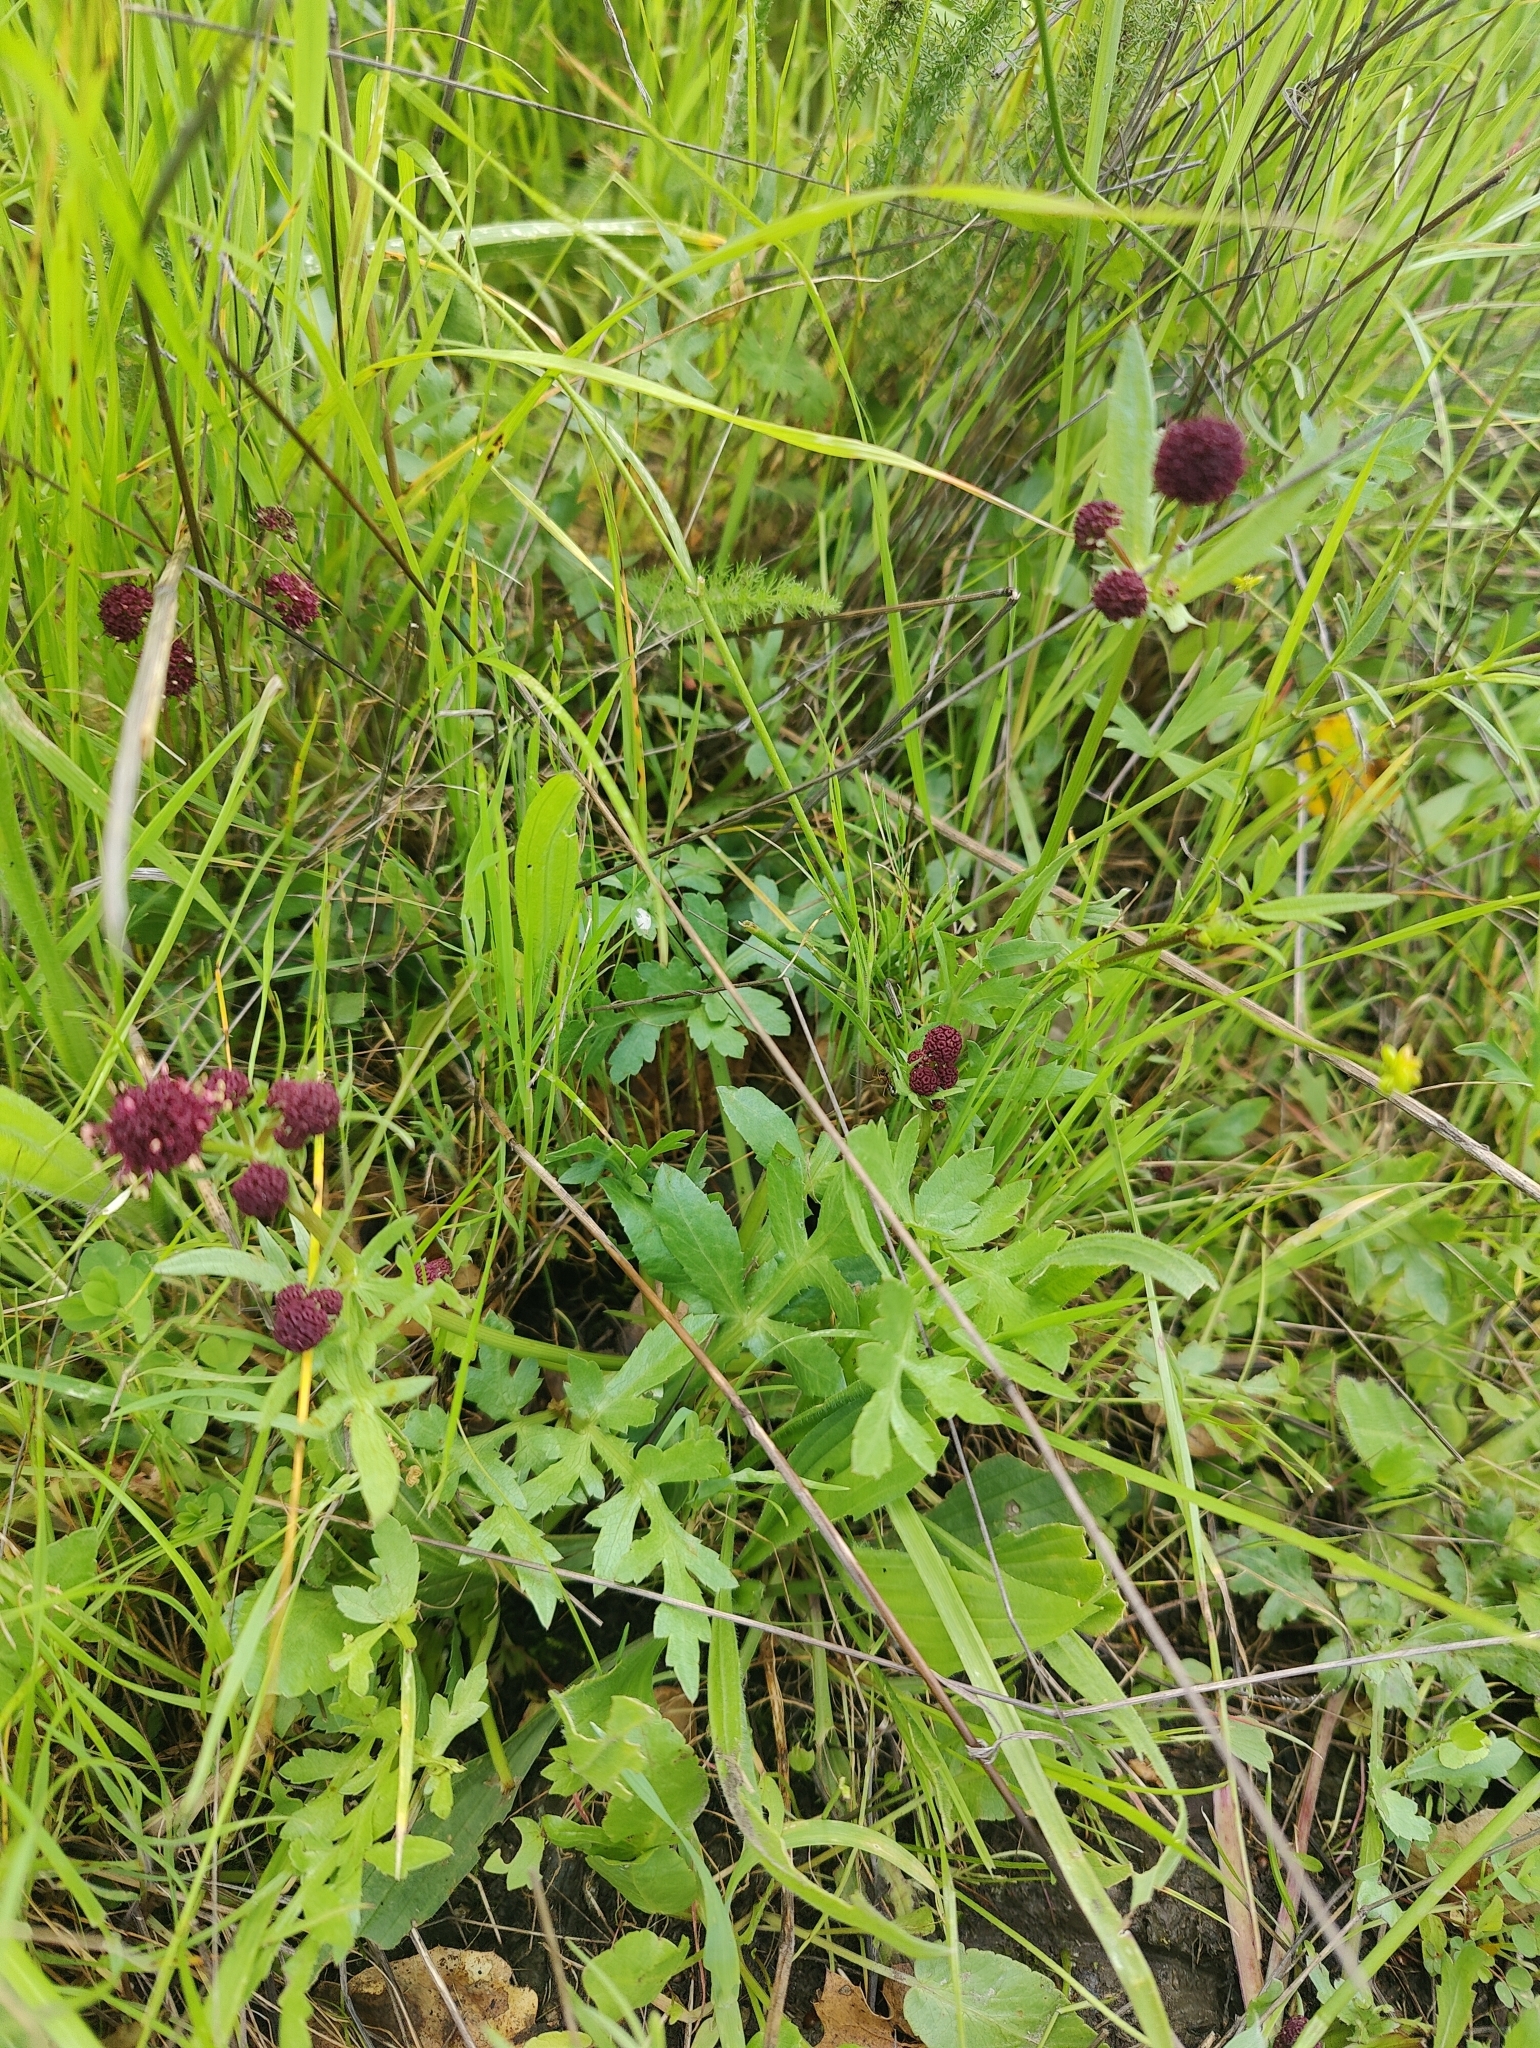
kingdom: Plantae
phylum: Tracheophyta
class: Magnoliopsida
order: Apiales
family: Apiaceae
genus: Sanicula
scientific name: Sanicula bipinnatifida
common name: Shoe-buttons
